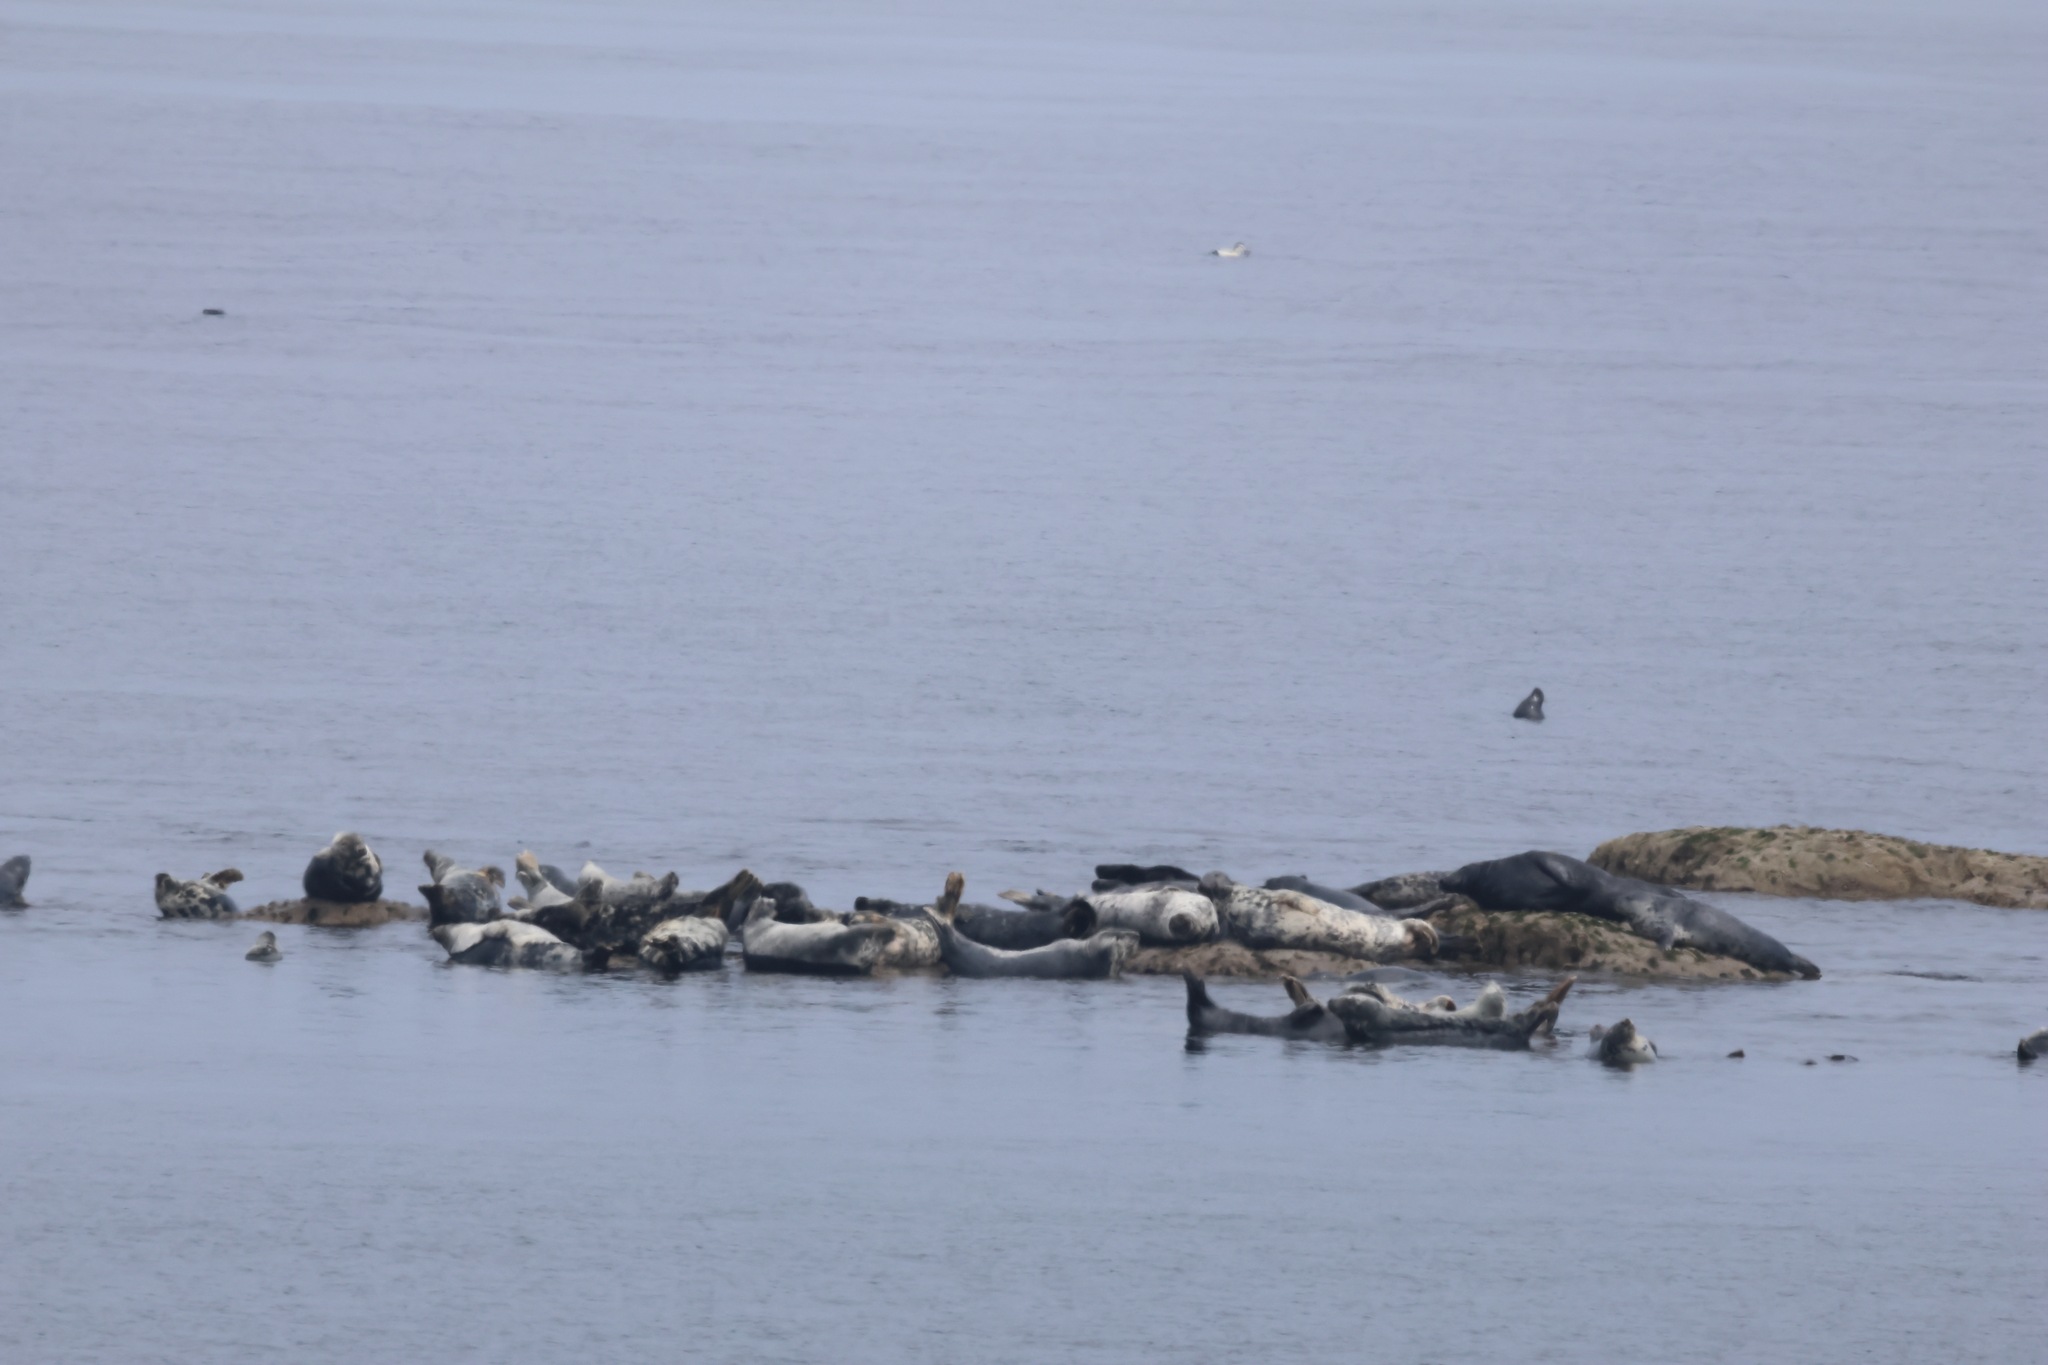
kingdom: Animalia
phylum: Chordata
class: Mammalia
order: Carnivora
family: Phocidae
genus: Halichoerus
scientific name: Halichoerus grypus
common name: Grey seal
